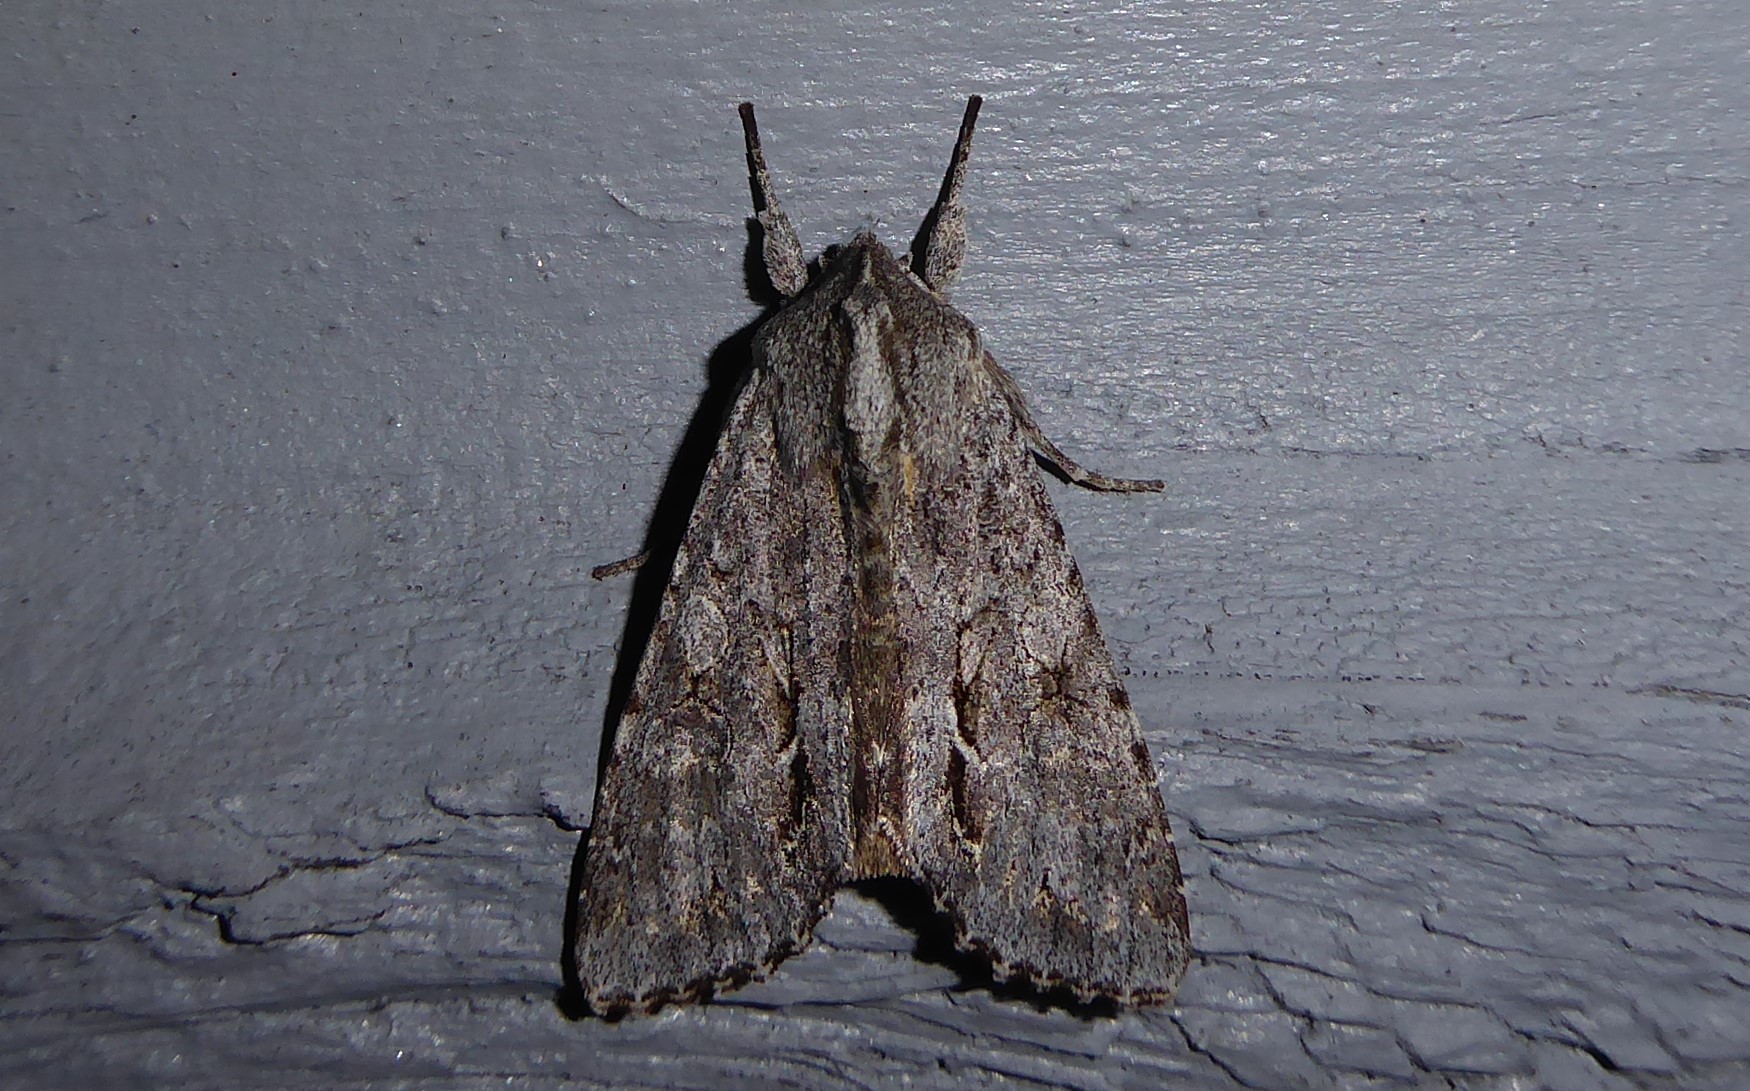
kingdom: Animalia
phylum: Arthropoda
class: Insecta
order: Lepidoptera
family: Noctuidae
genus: Ichneutica
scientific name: Ichneutica
